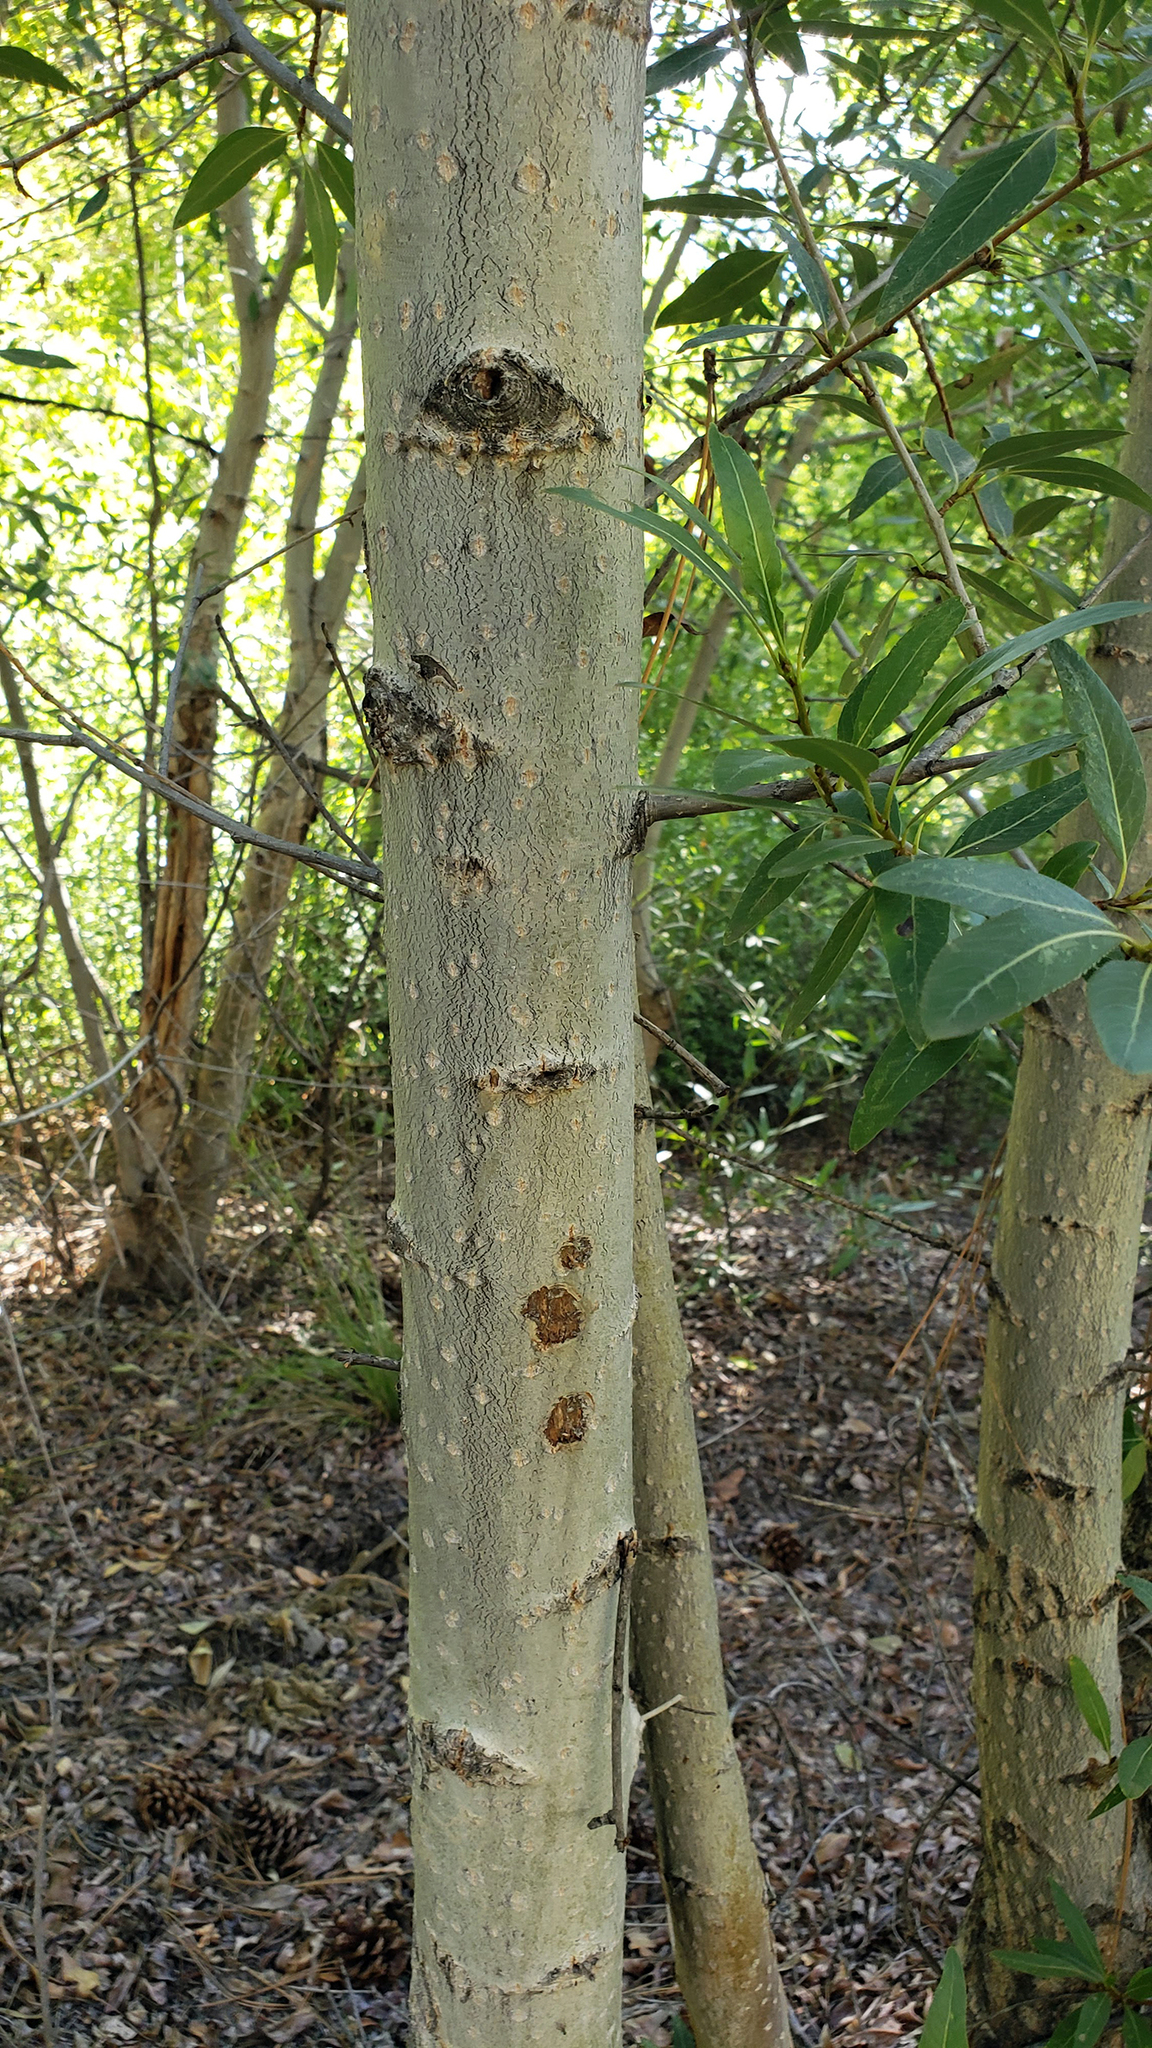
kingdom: Plantae
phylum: Tracheophyta
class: Magnoliopsida
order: Malpighiales
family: Salicaceae
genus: Populus
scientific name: Populus angustifolia
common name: Willow cottonwood
